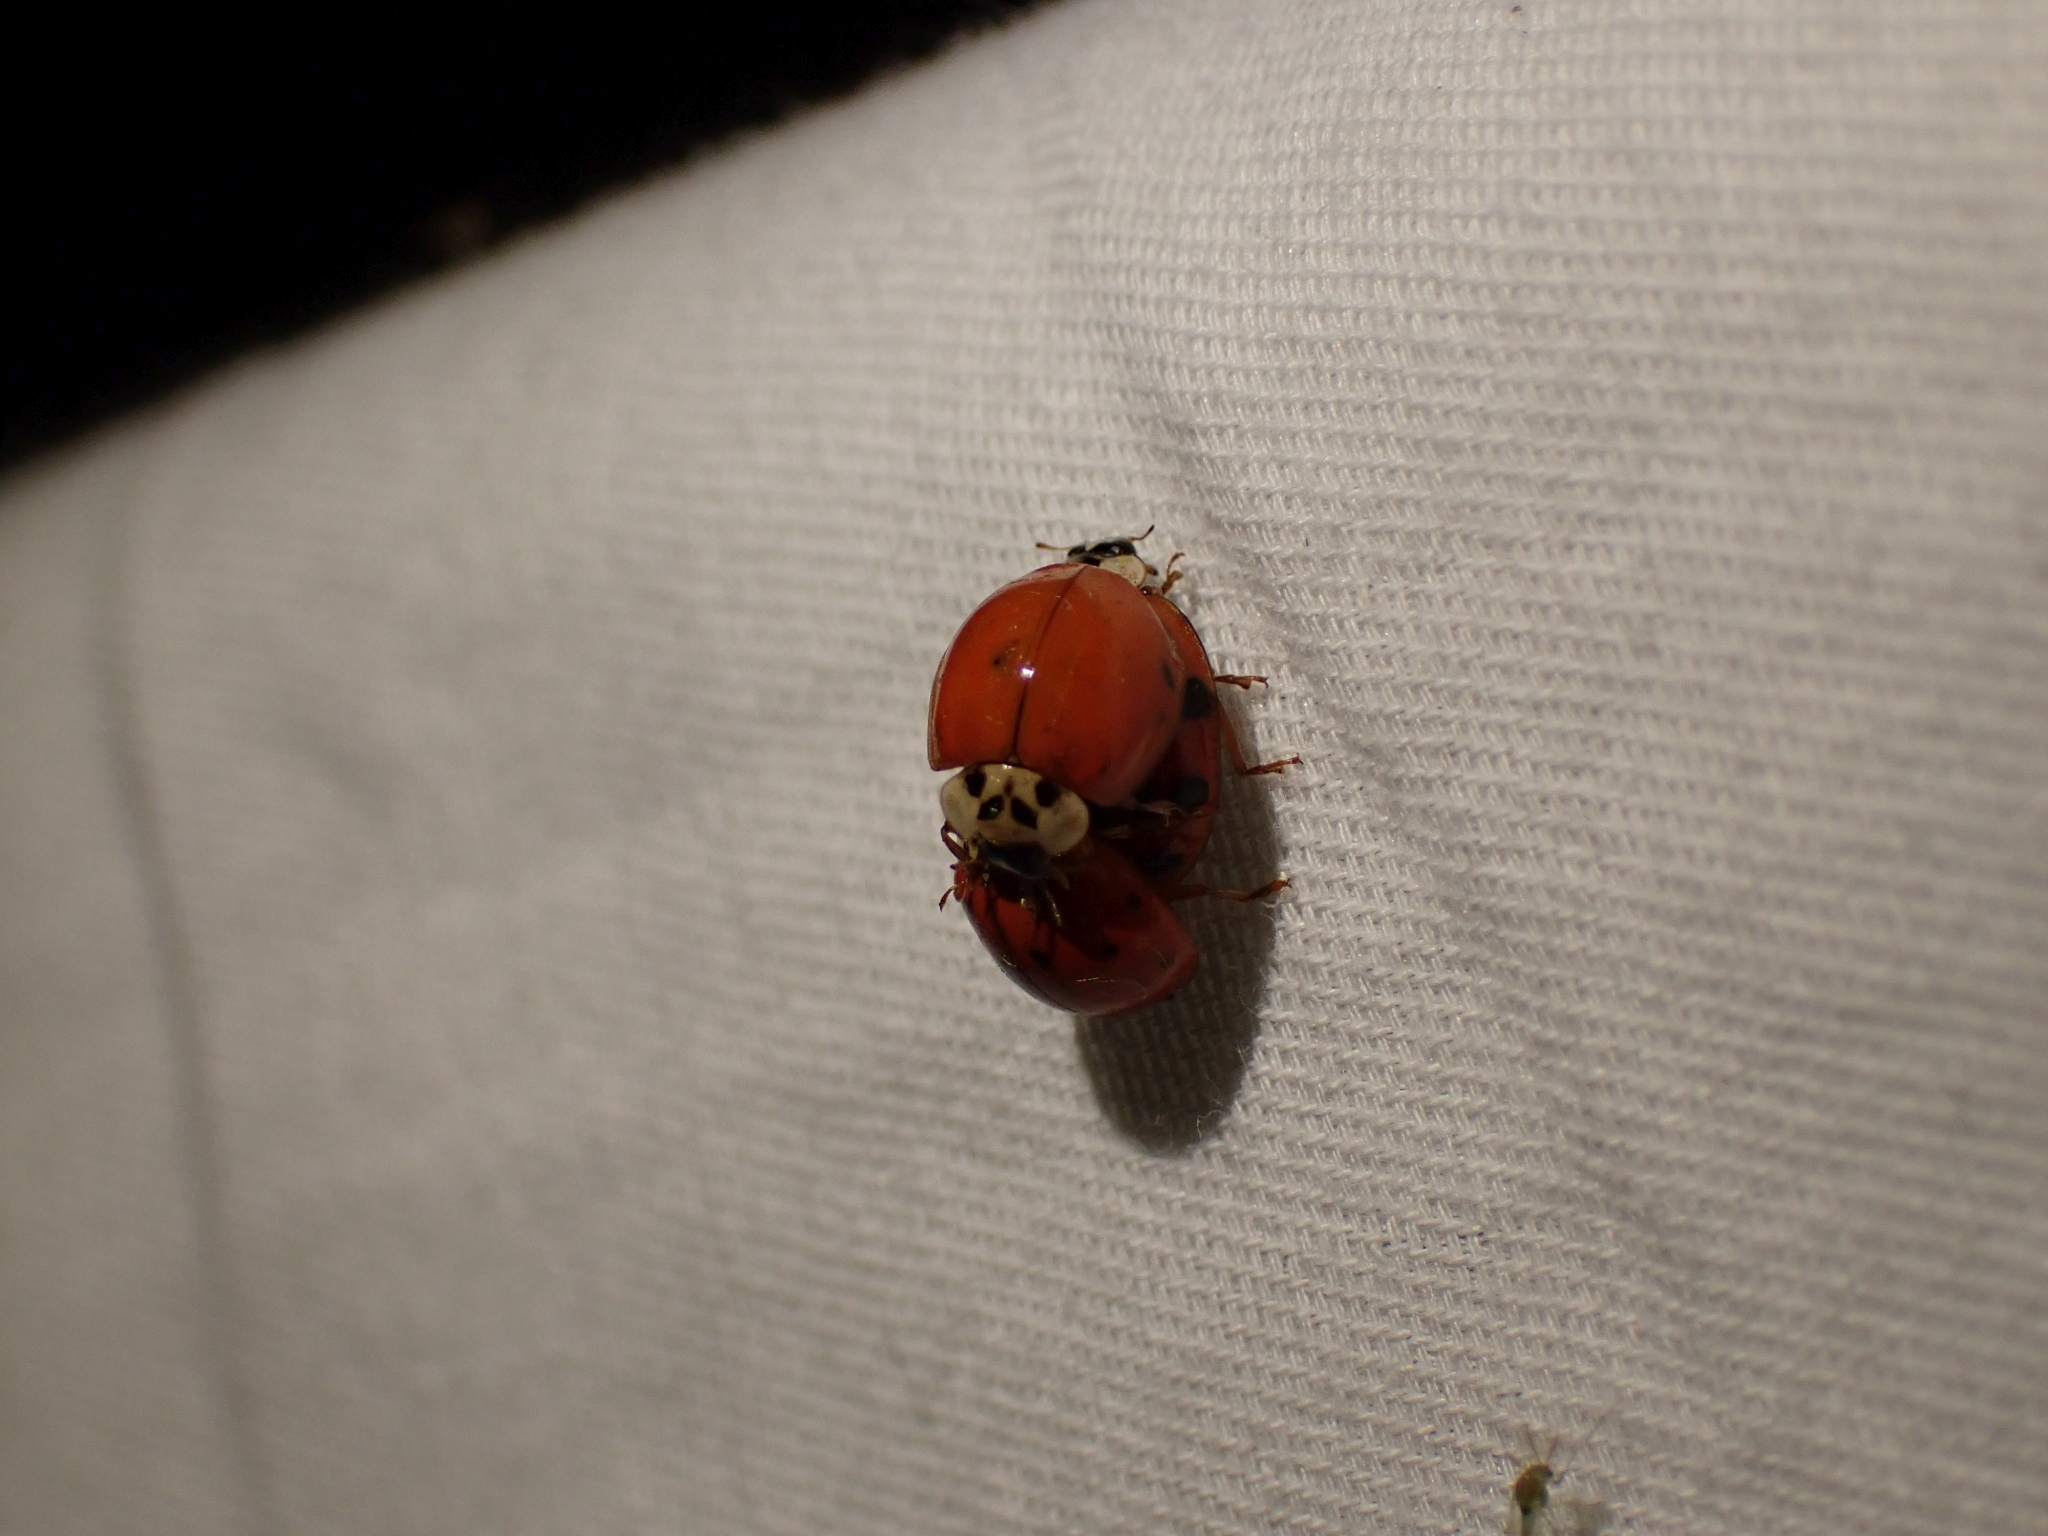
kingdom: Animalia
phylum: Arthropoda
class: Insecta
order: Coleoptera
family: Coccinellidae
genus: Harmonia
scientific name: Harmonia axyridis
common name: Harlequin ladybird
